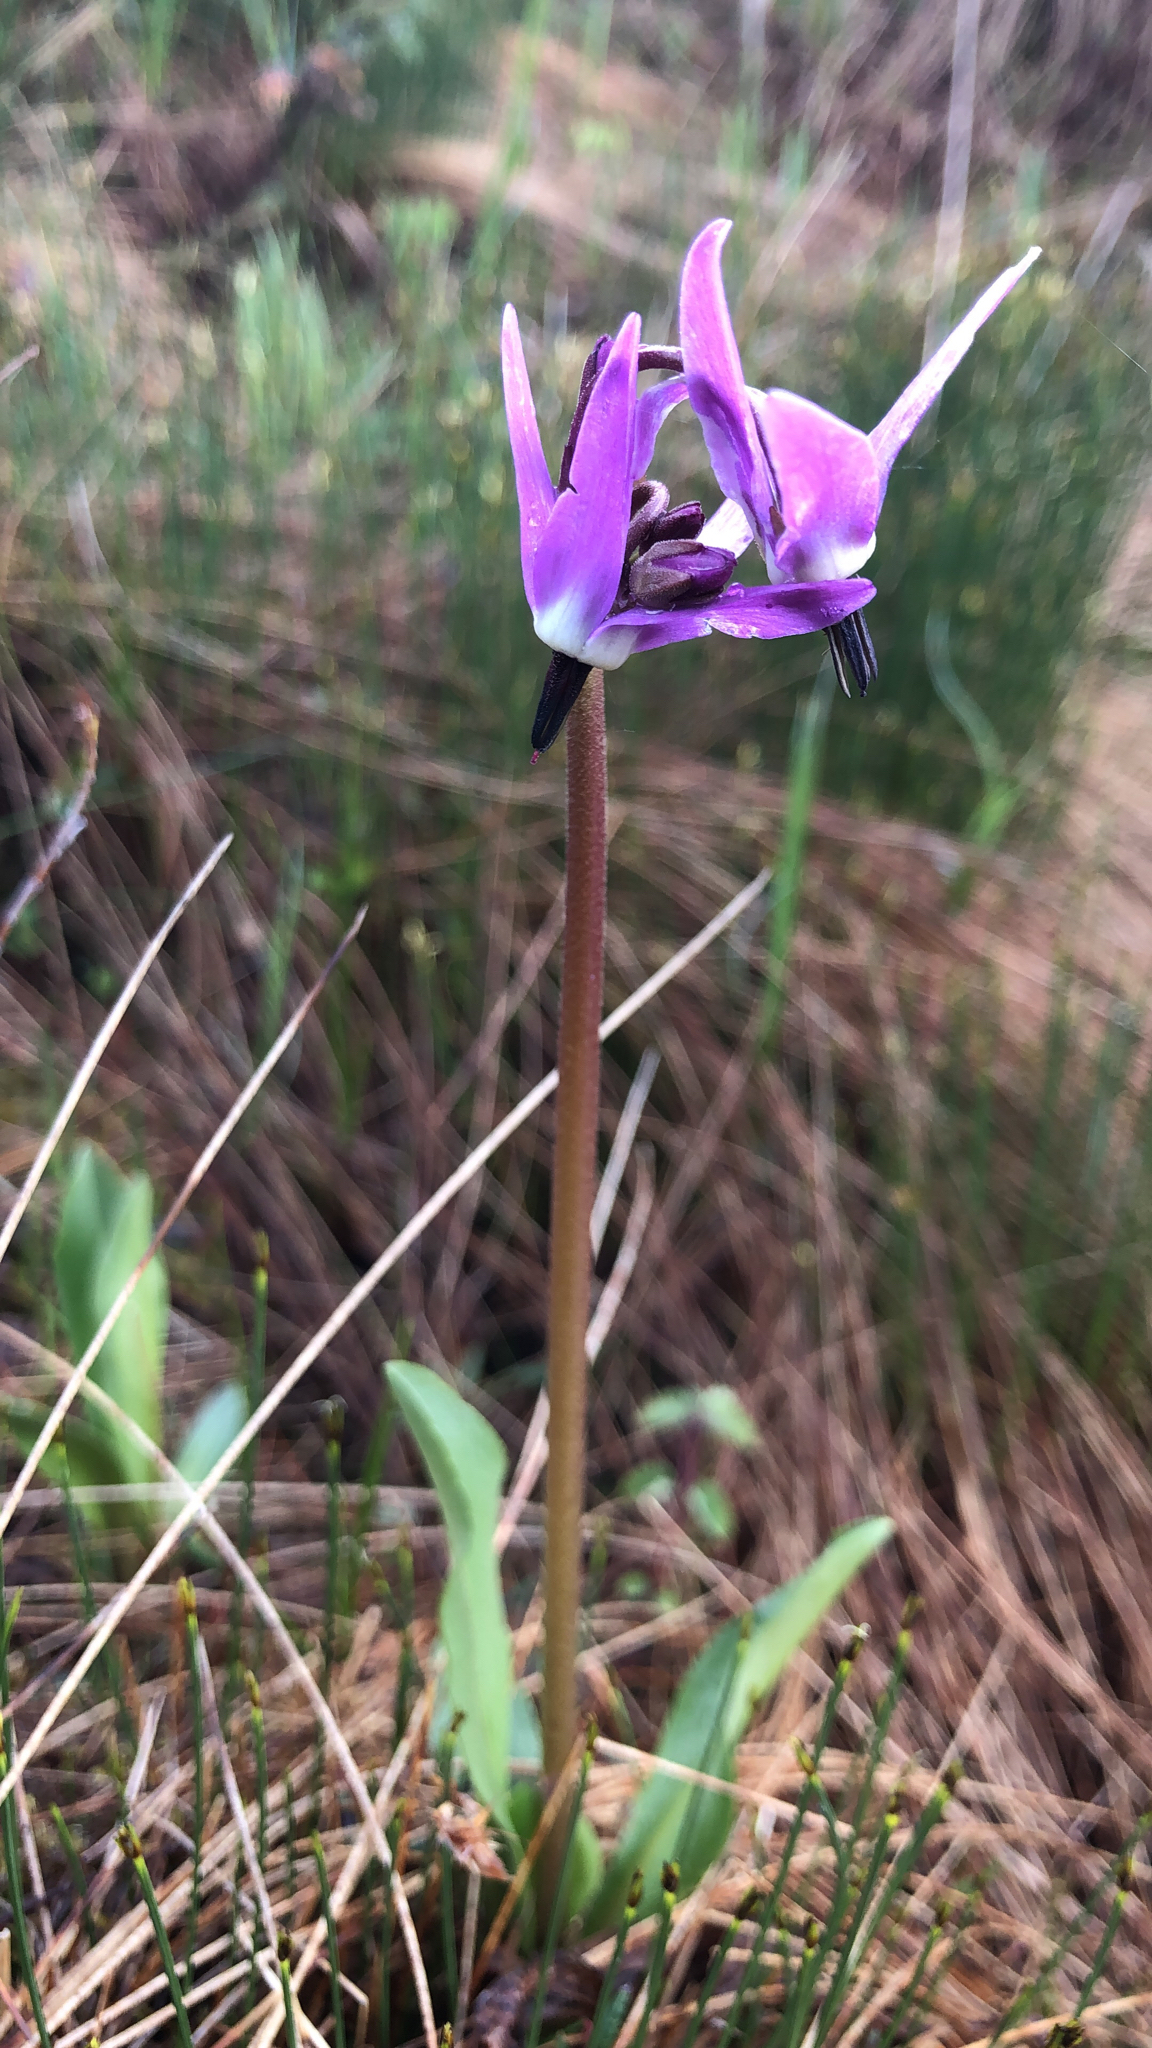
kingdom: Plantae
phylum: Tracheophyta
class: Magnoliopsida
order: Ericales
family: Primulaceae
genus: Dodecatheon
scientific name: Dodecatheon jeffreyanum
